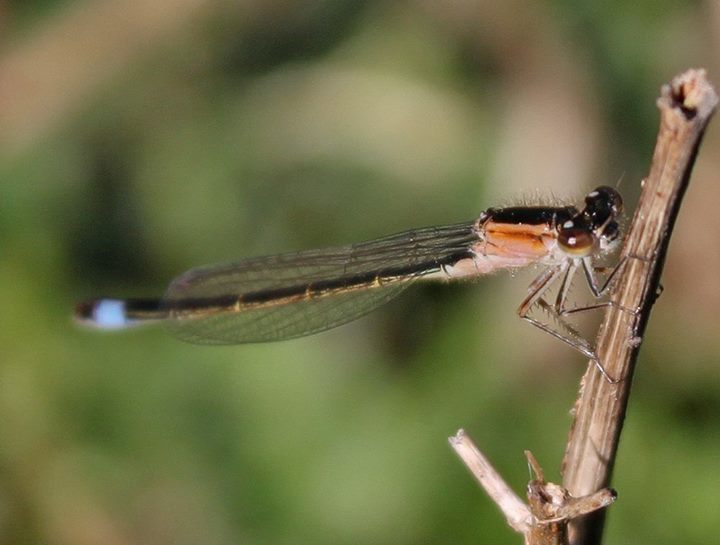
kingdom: Animalia
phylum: Arthropoda
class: Insecta
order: Odonata
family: Coenagrionidae
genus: Ischnura
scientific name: Ischnura elegans
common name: Blue-tailed damselfly
